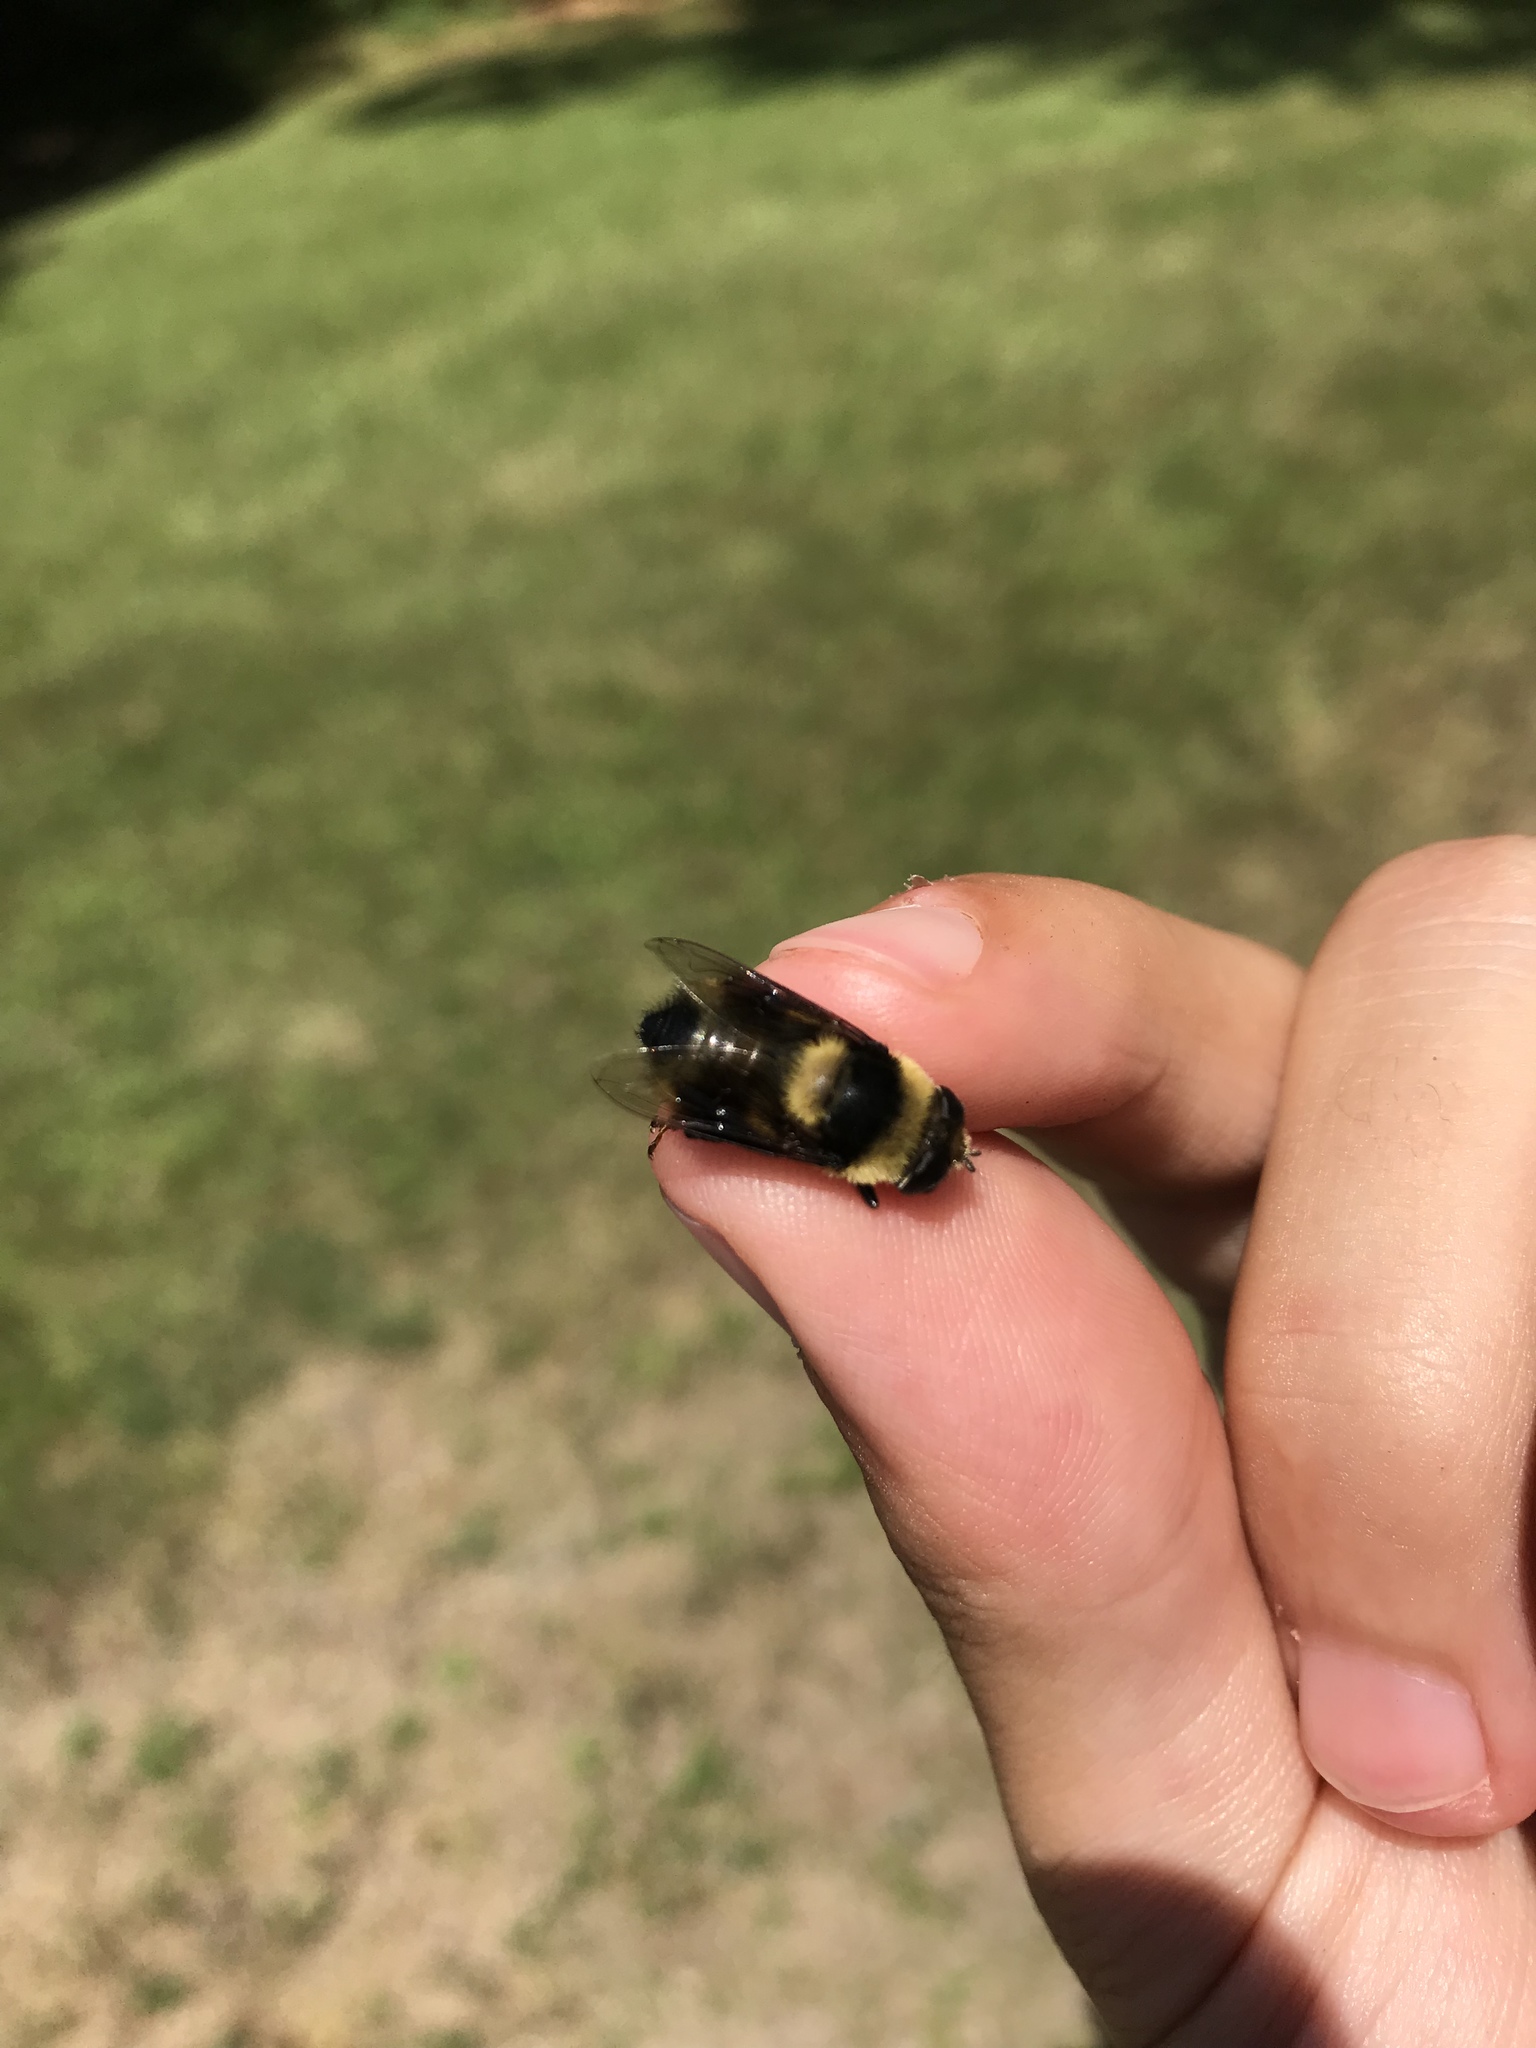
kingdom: Animalia
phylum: Arthropoda
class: Insecta
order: Diptera
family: Syrphidae
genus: Eristalis
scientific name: Eristalis flavipes
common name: Orange-legged drone fly
